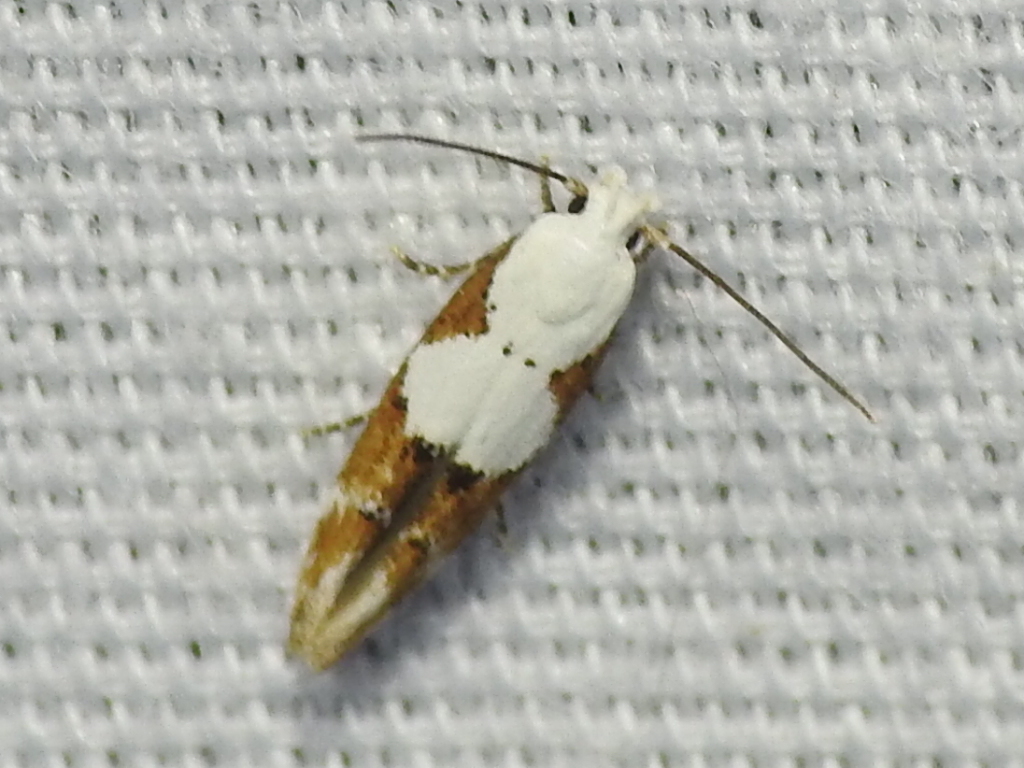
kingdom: Animalia
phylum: Arthropoda
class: Insecta
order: Lepidoptera
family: Momphidae
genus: Mompha
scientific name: Mompha circumscriptella
